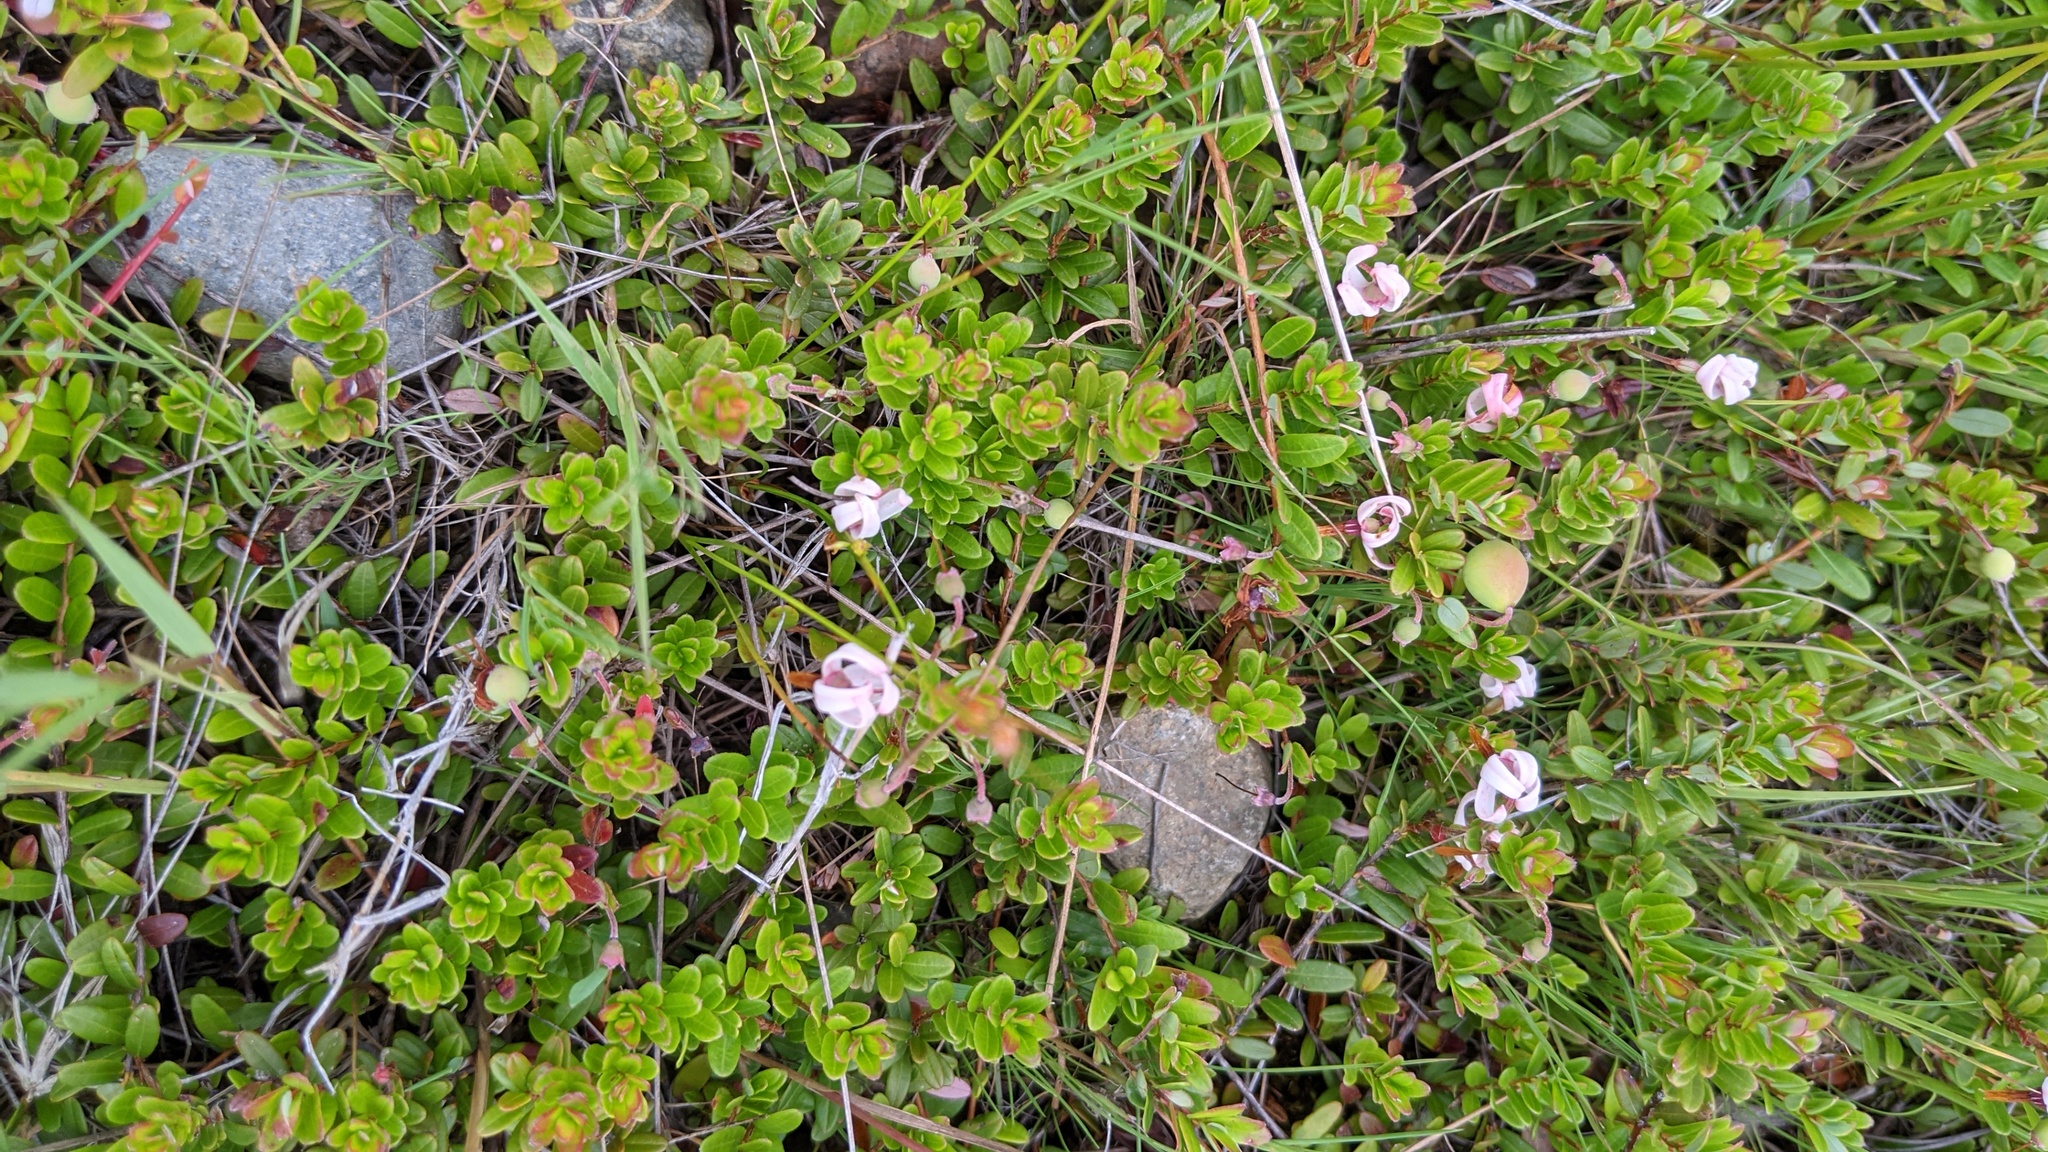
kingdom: Plantae
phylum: Tracheophyta
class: Magnoliopsida
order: Ericales
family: Ericaceae
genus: Vaccinium
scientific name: Vaccinium macrocarpon
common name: American cranberry
